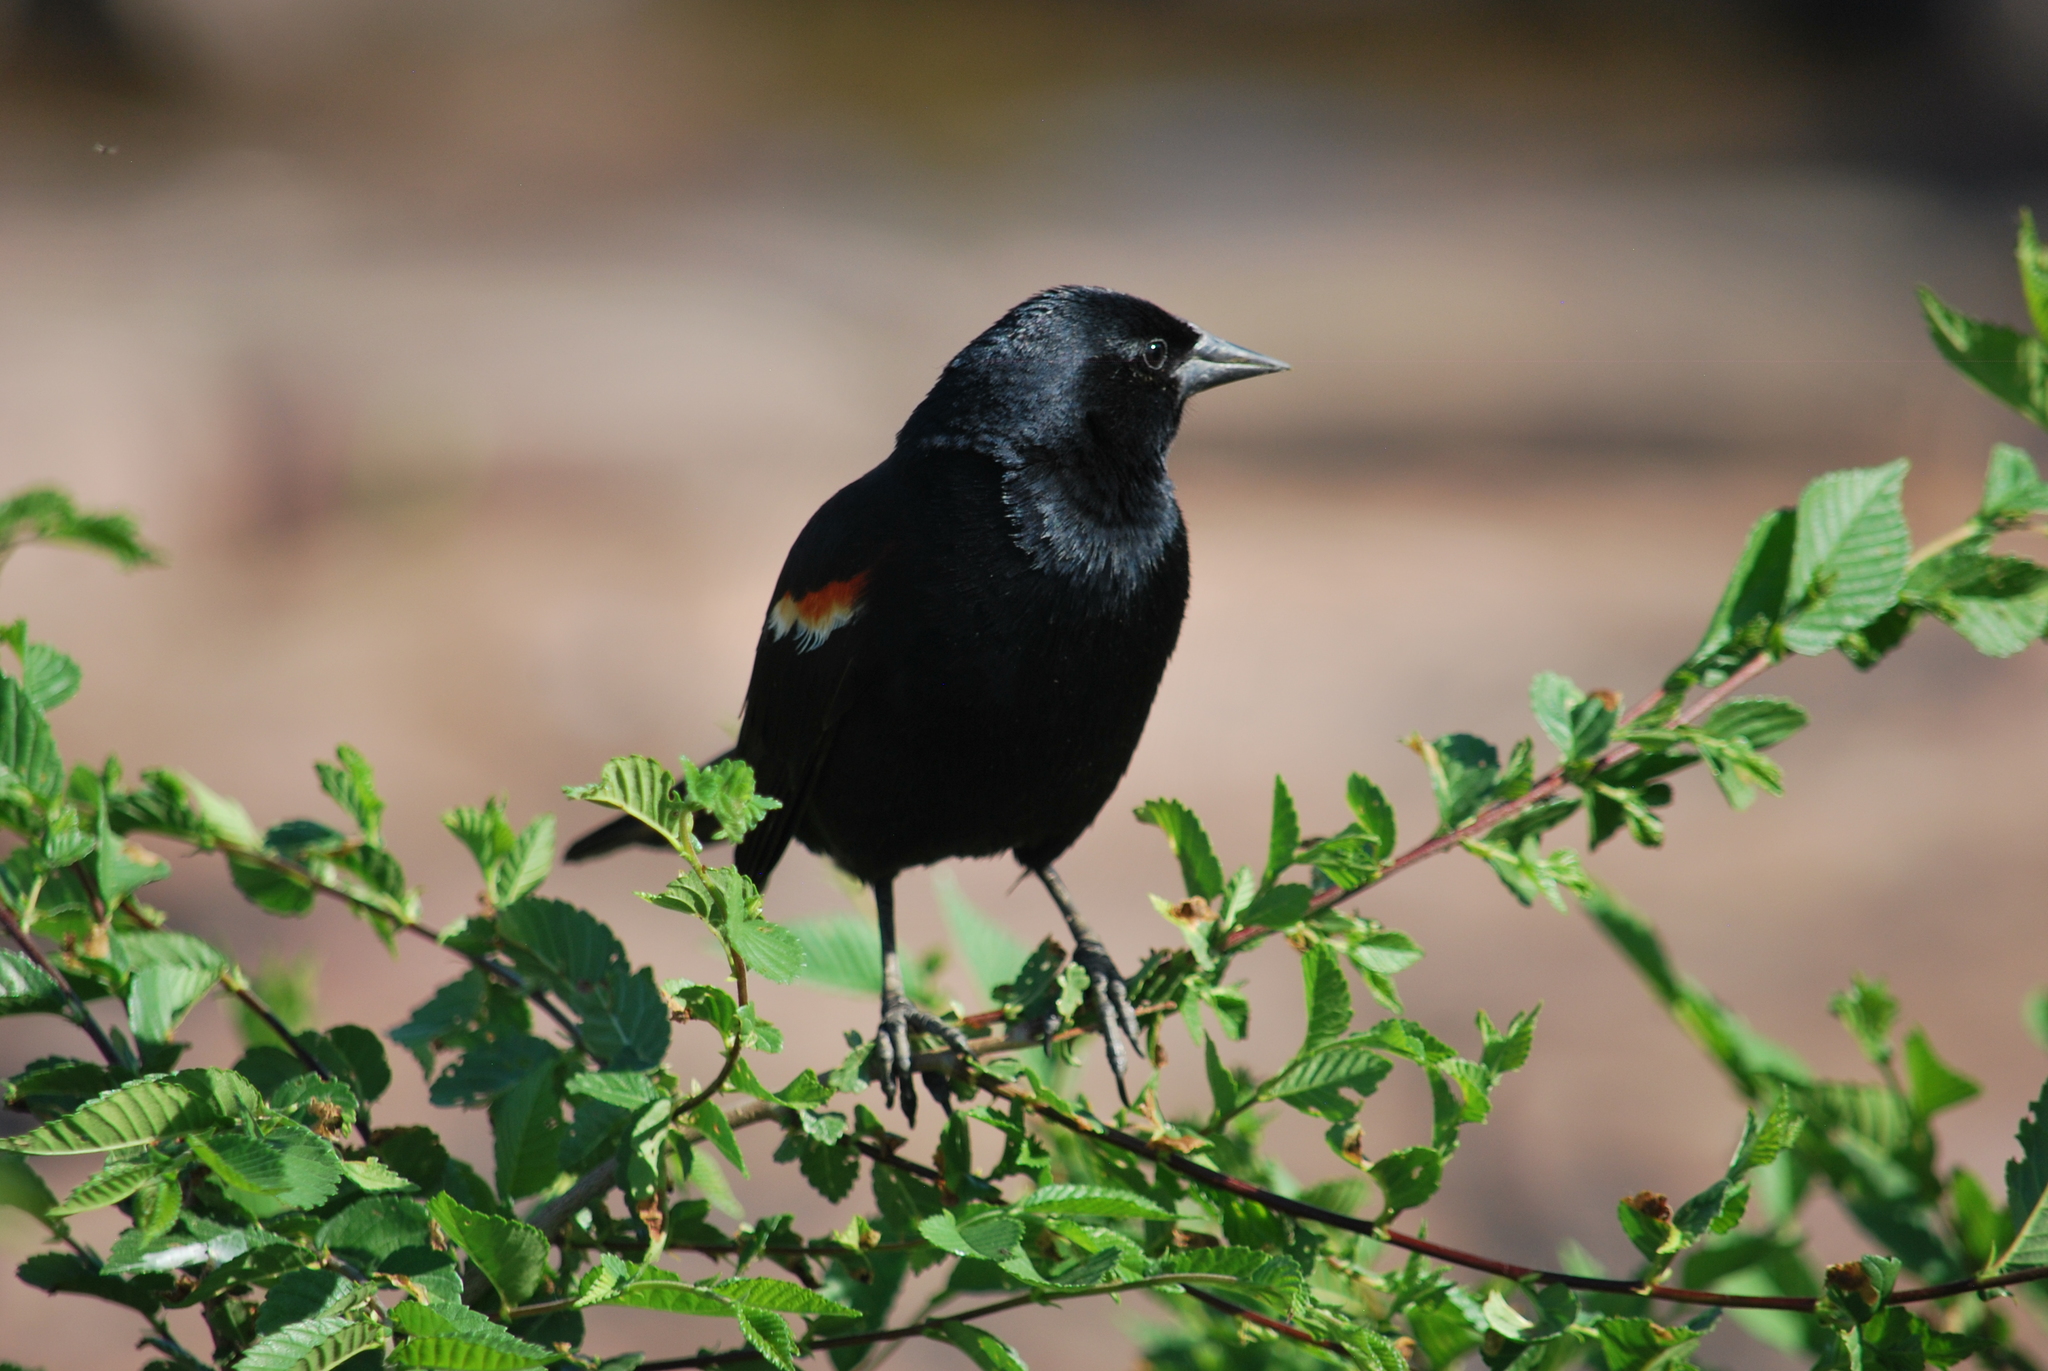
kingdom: Animalia
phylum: Chordata
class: Aves
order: Passeriformes
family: Icteridae
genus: Agelaius
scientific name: Agelaius phoeniceus
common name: Red-winged blackbird
